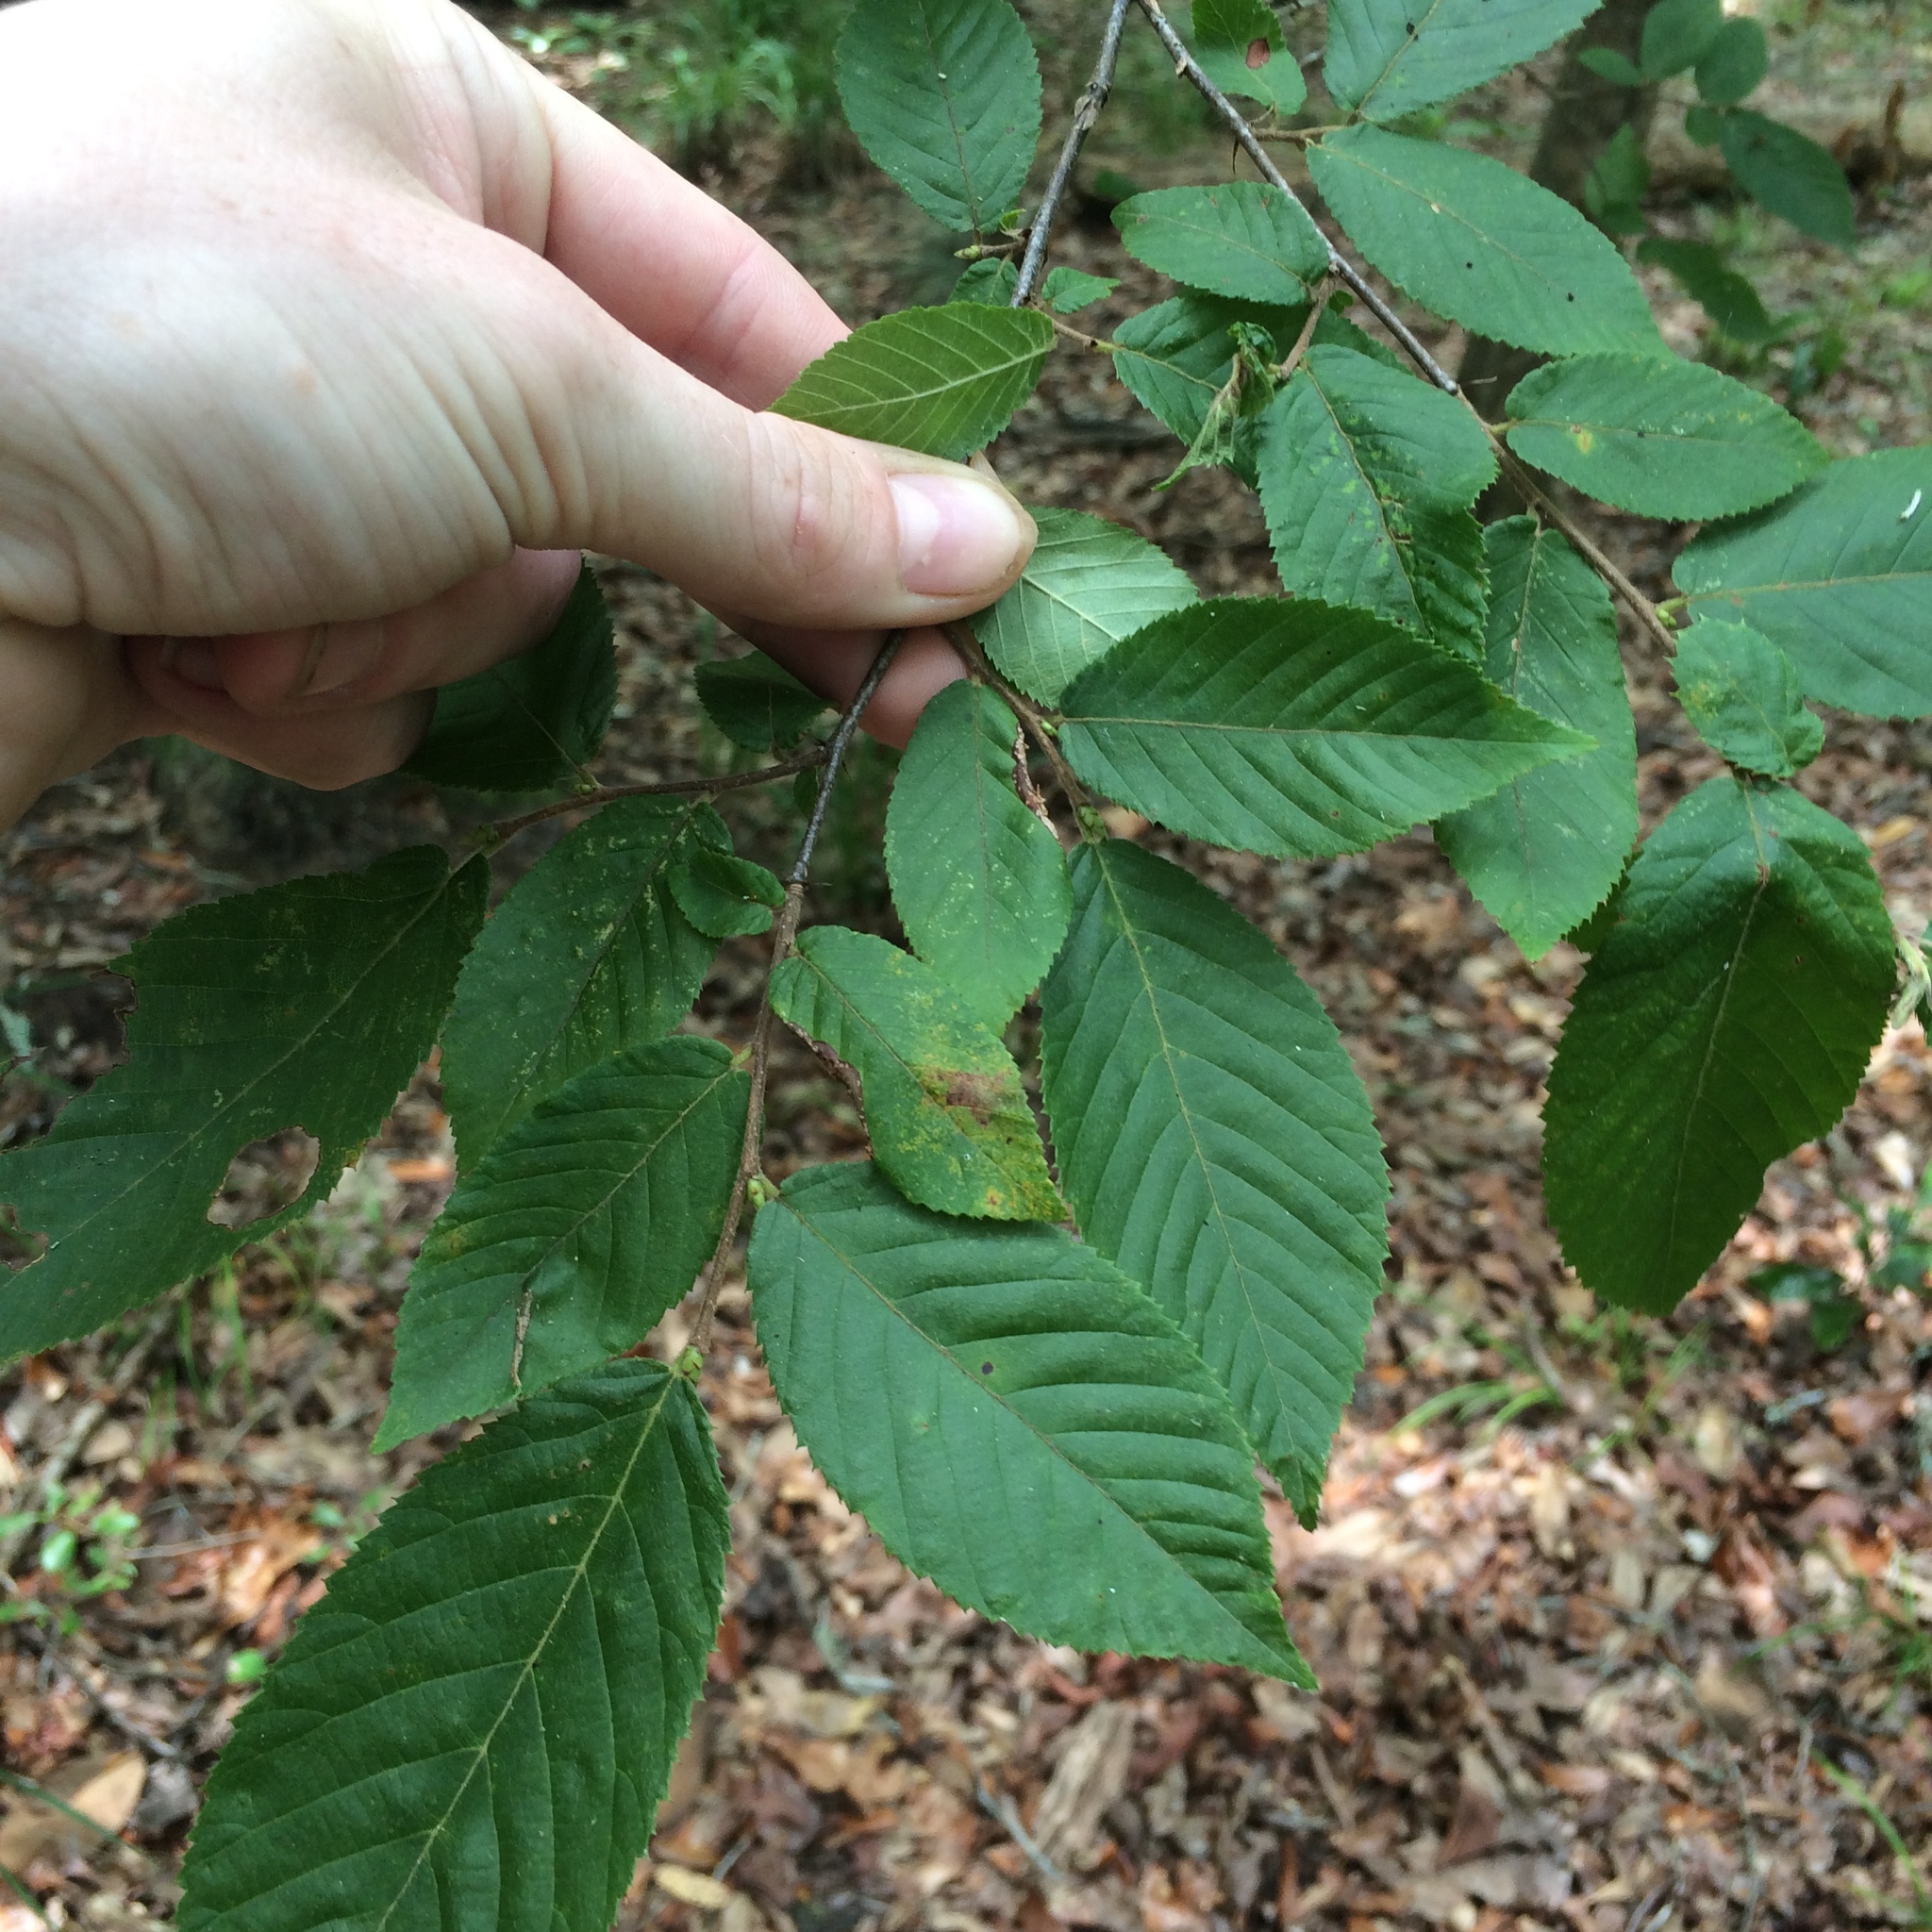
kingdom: Plantae
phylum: Tracheophyta
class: Magnoliopsida
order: Fagales
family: Betulaceae
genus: Ostrya
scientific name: Ostrya virginiana
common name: Ironwood
